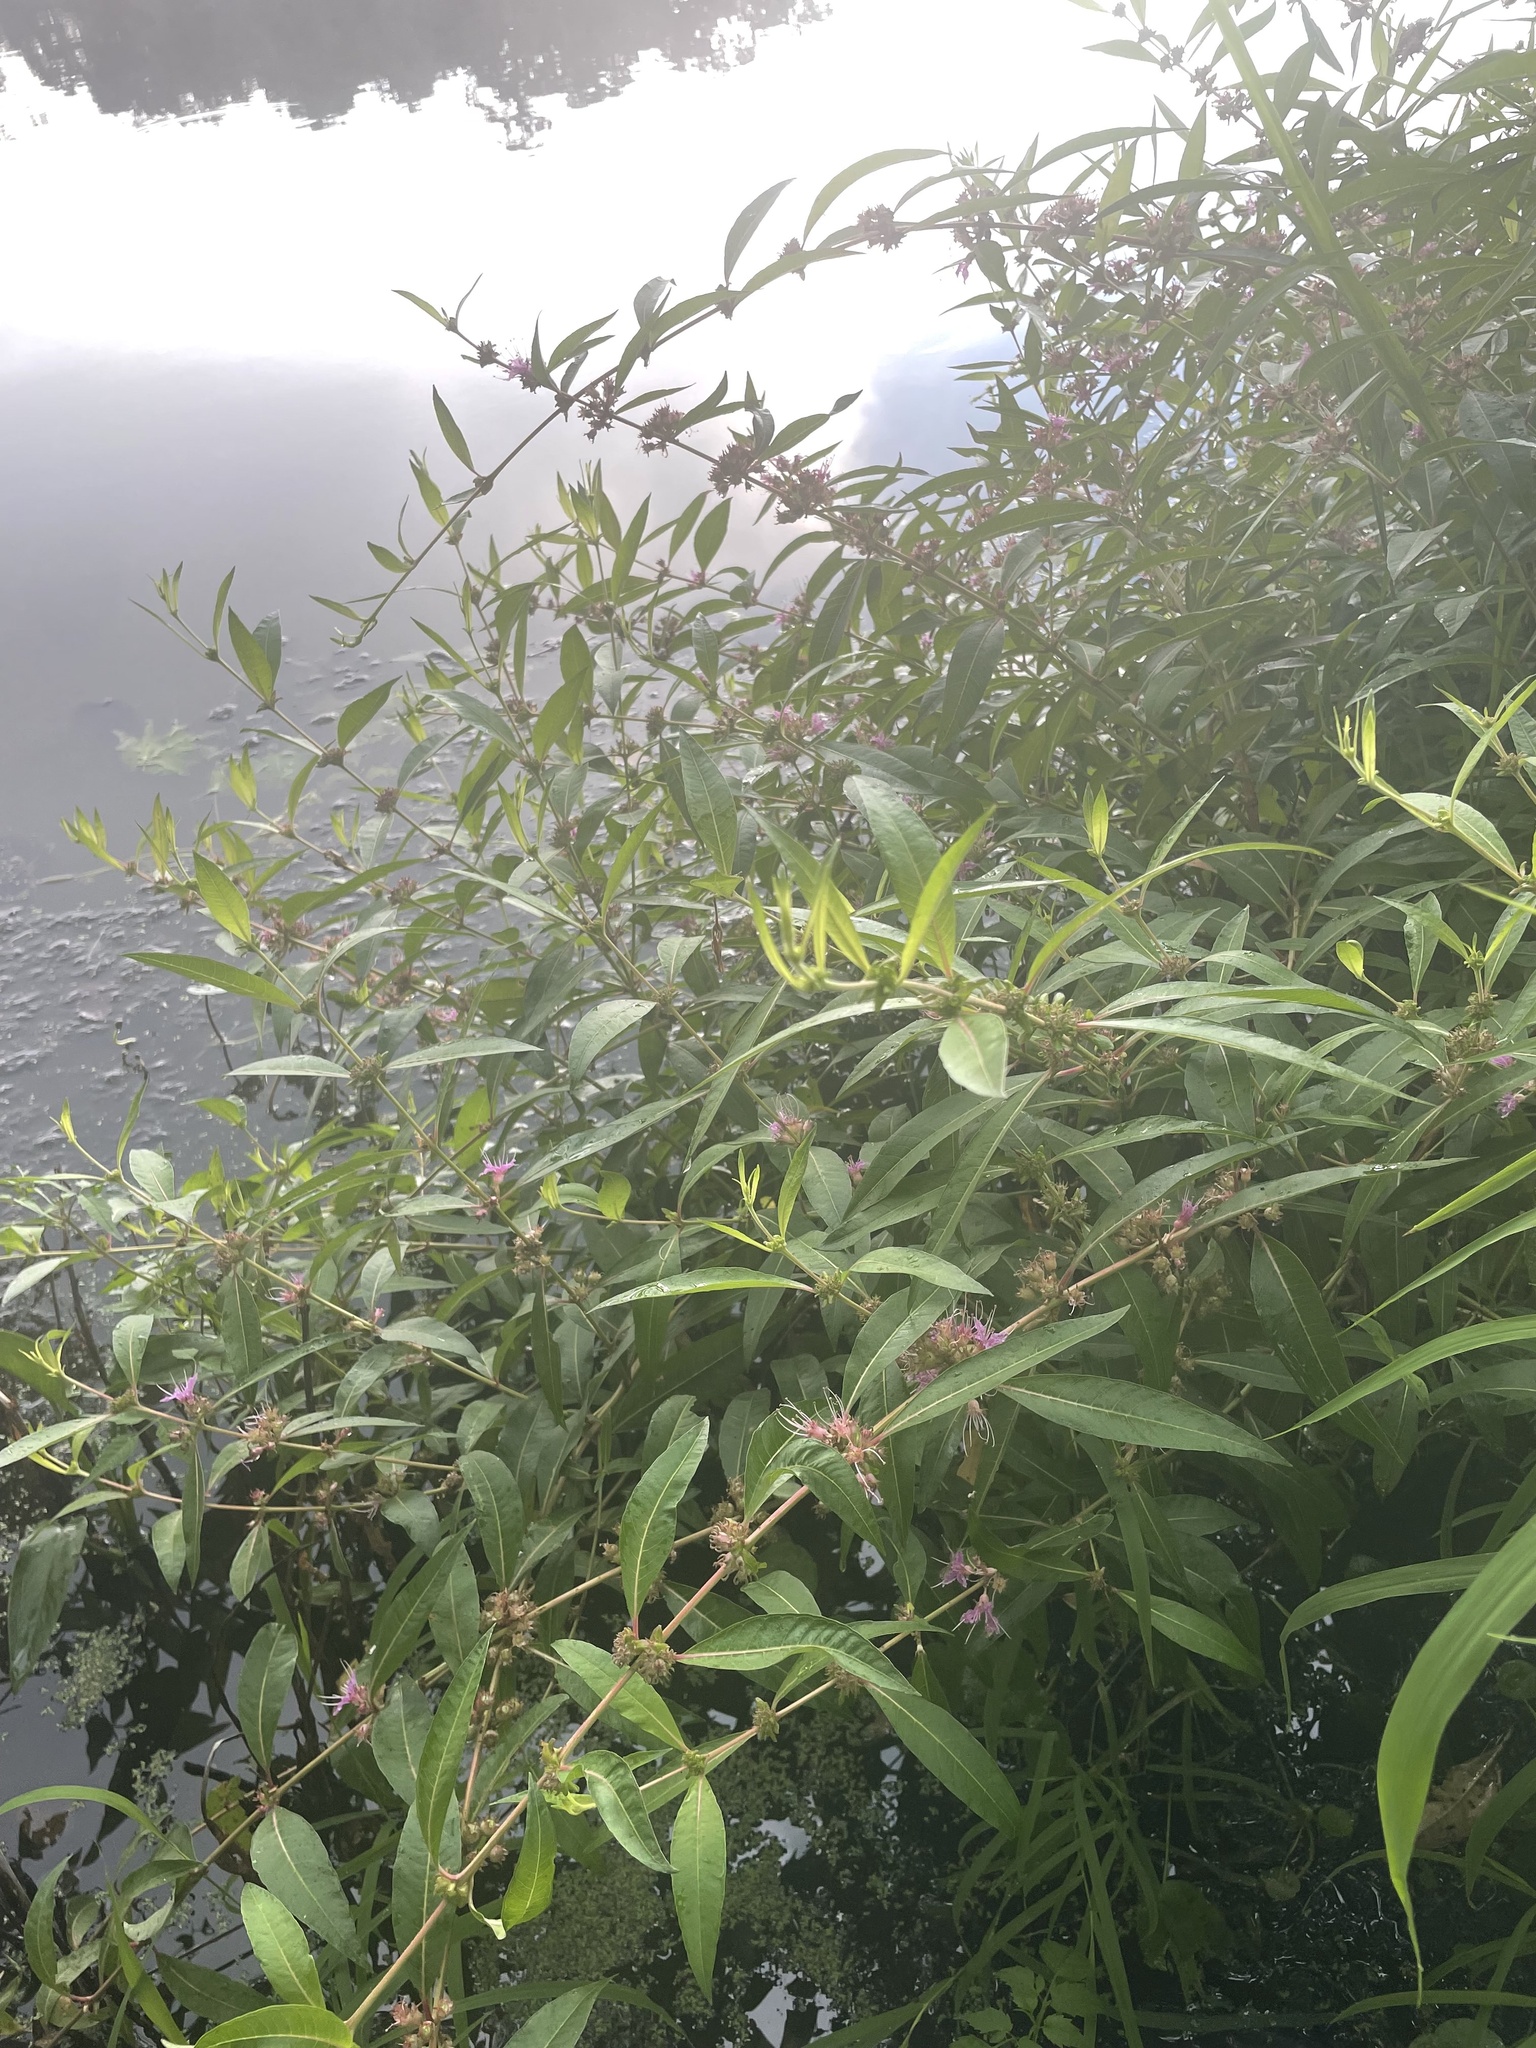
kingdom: Plantae
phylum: Tracheophyta
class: Magnoliopsida
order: Myrtales
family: Lythraceae
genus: Decodon
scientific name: Decodon verticillatus
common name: Hairy swamp loosestrife
